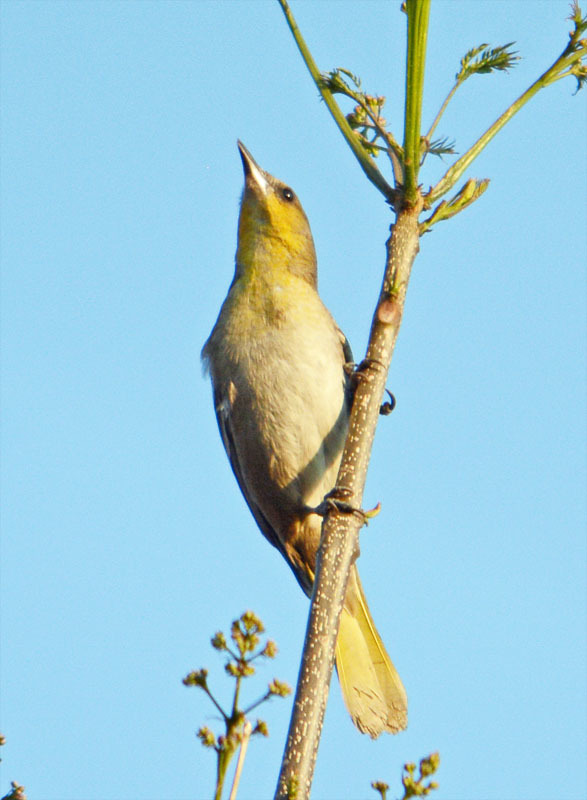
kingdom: Animalia
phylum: Chordata
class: Aves
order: Passeriformes
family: Icteridae
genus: Icterus
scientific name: Icterus bullockii
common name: Bullock's oriole
